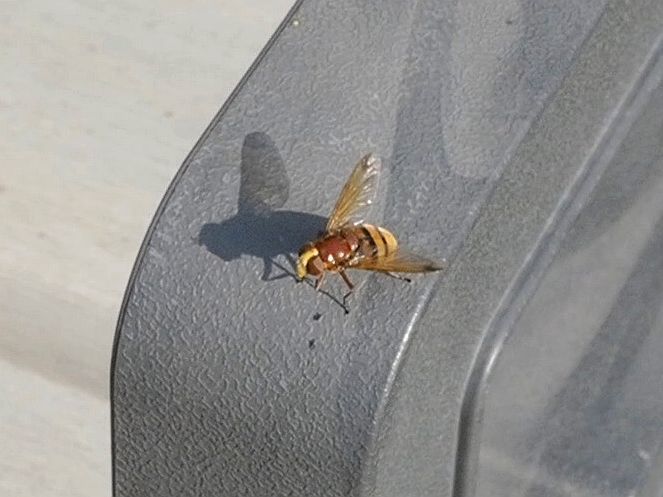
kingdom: Animalia
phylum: Arthropoda
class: Insecta
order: Diptera
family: Syrphidae
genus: Volucella
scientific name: Volucella zonaria
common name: Hornet hoverfly
